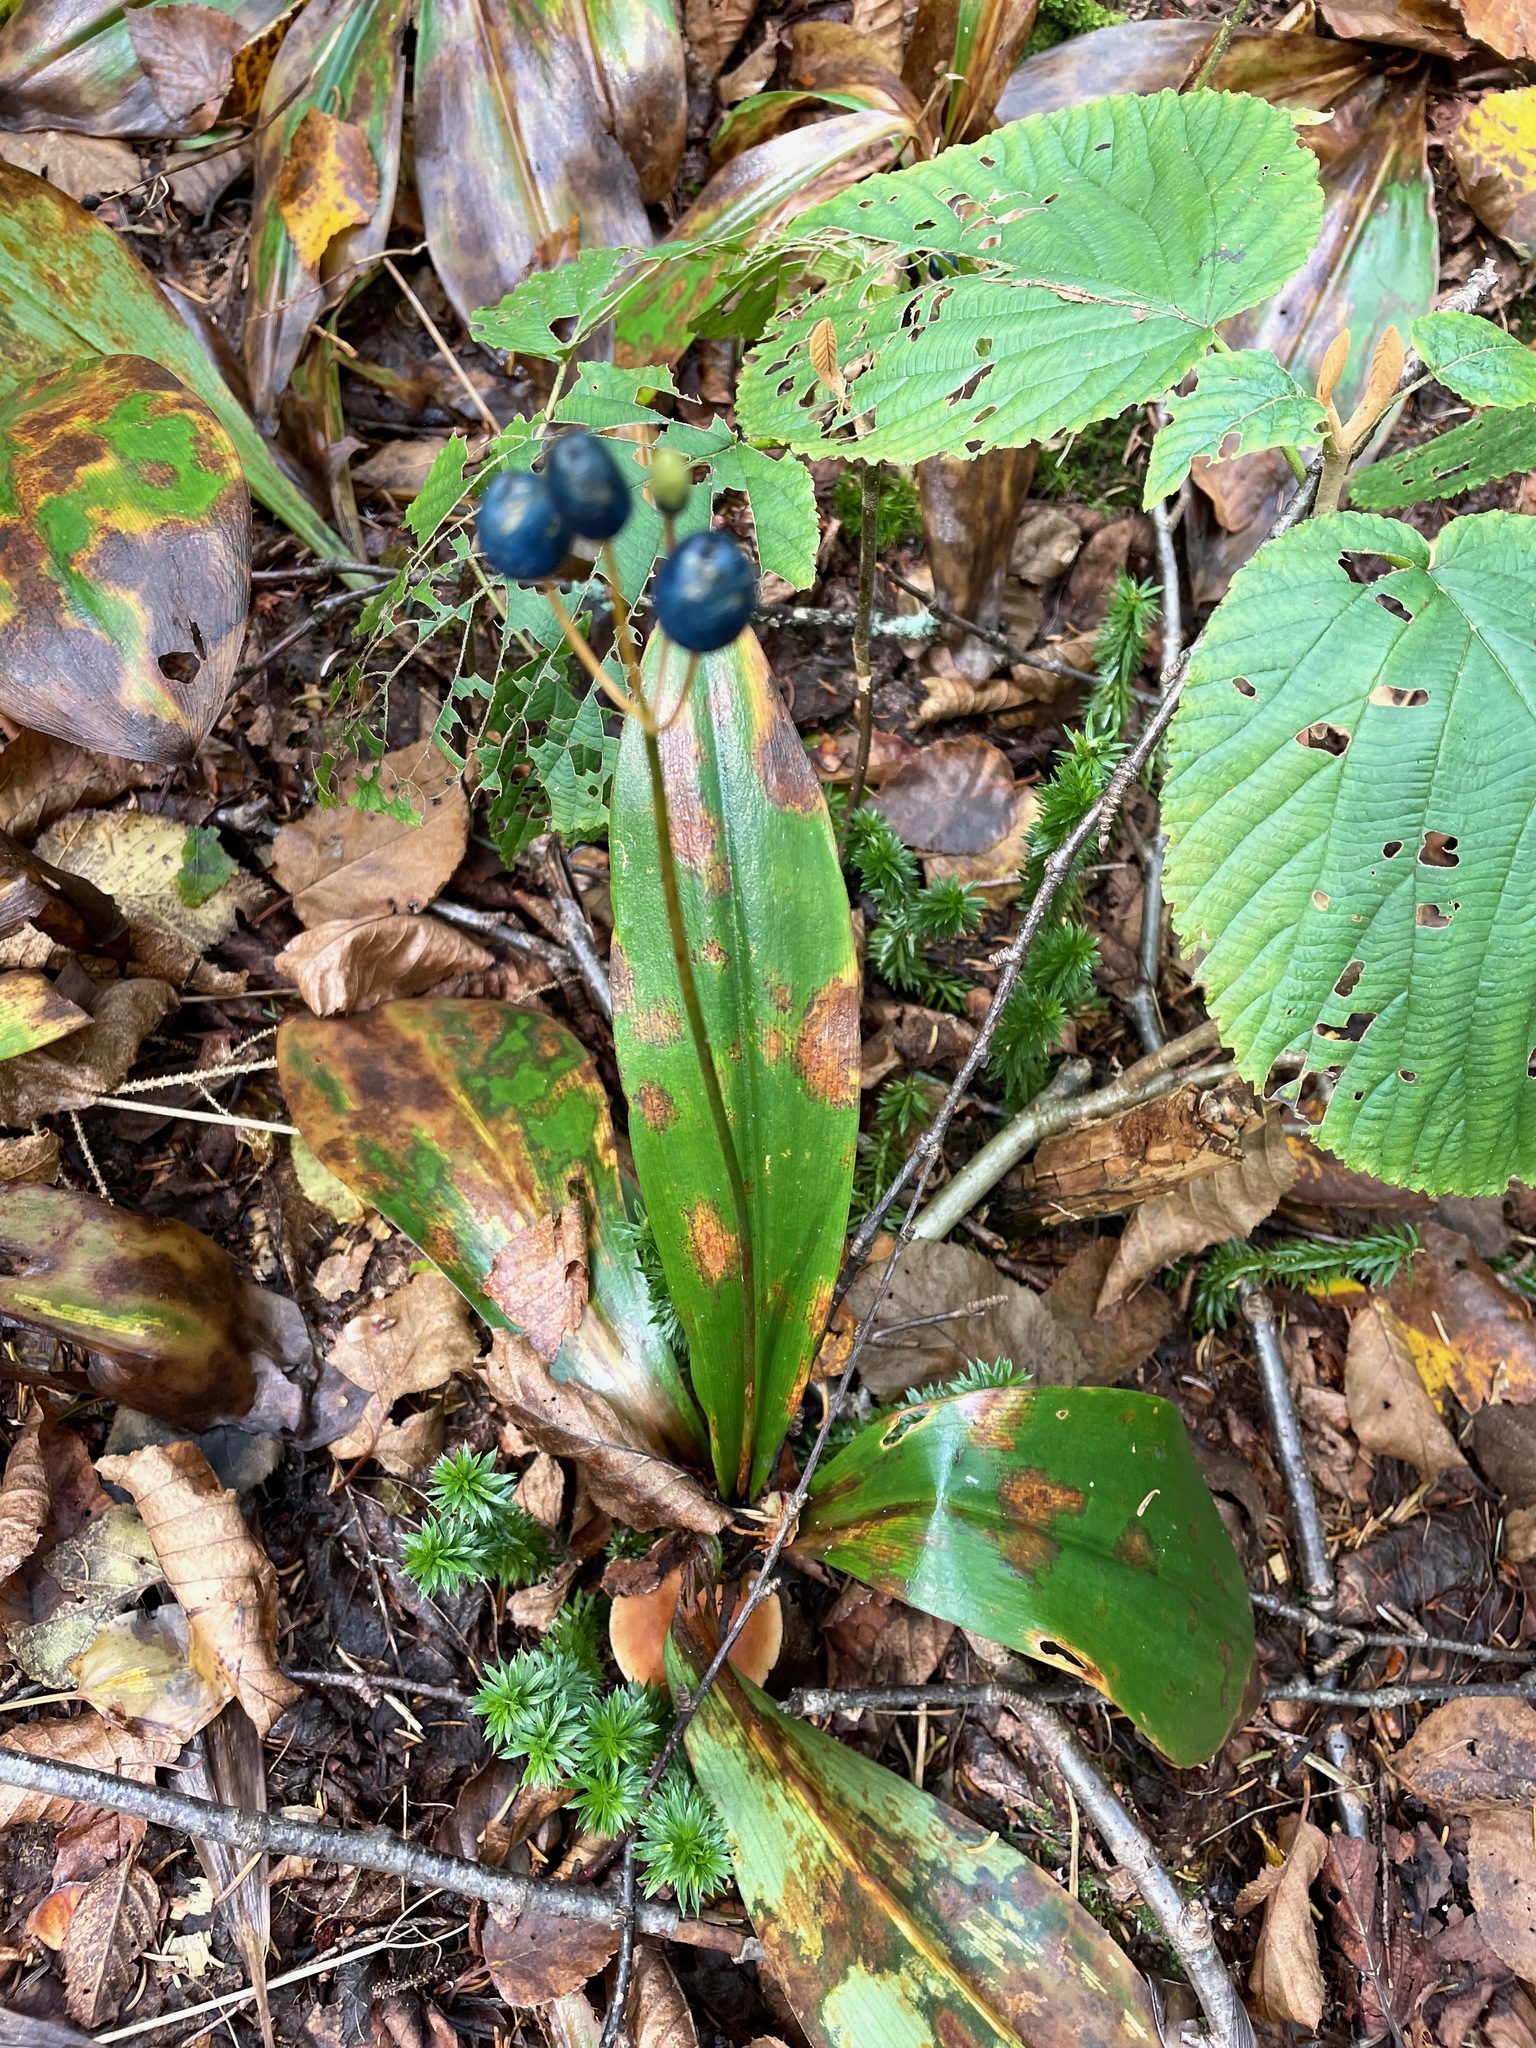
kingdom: Plantae
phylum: Tracheophyta
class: Liliopsida
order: Liliales
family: Liliaceae
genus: Clintonia
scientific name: Clintonia borealis
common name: Yellow clintonia
